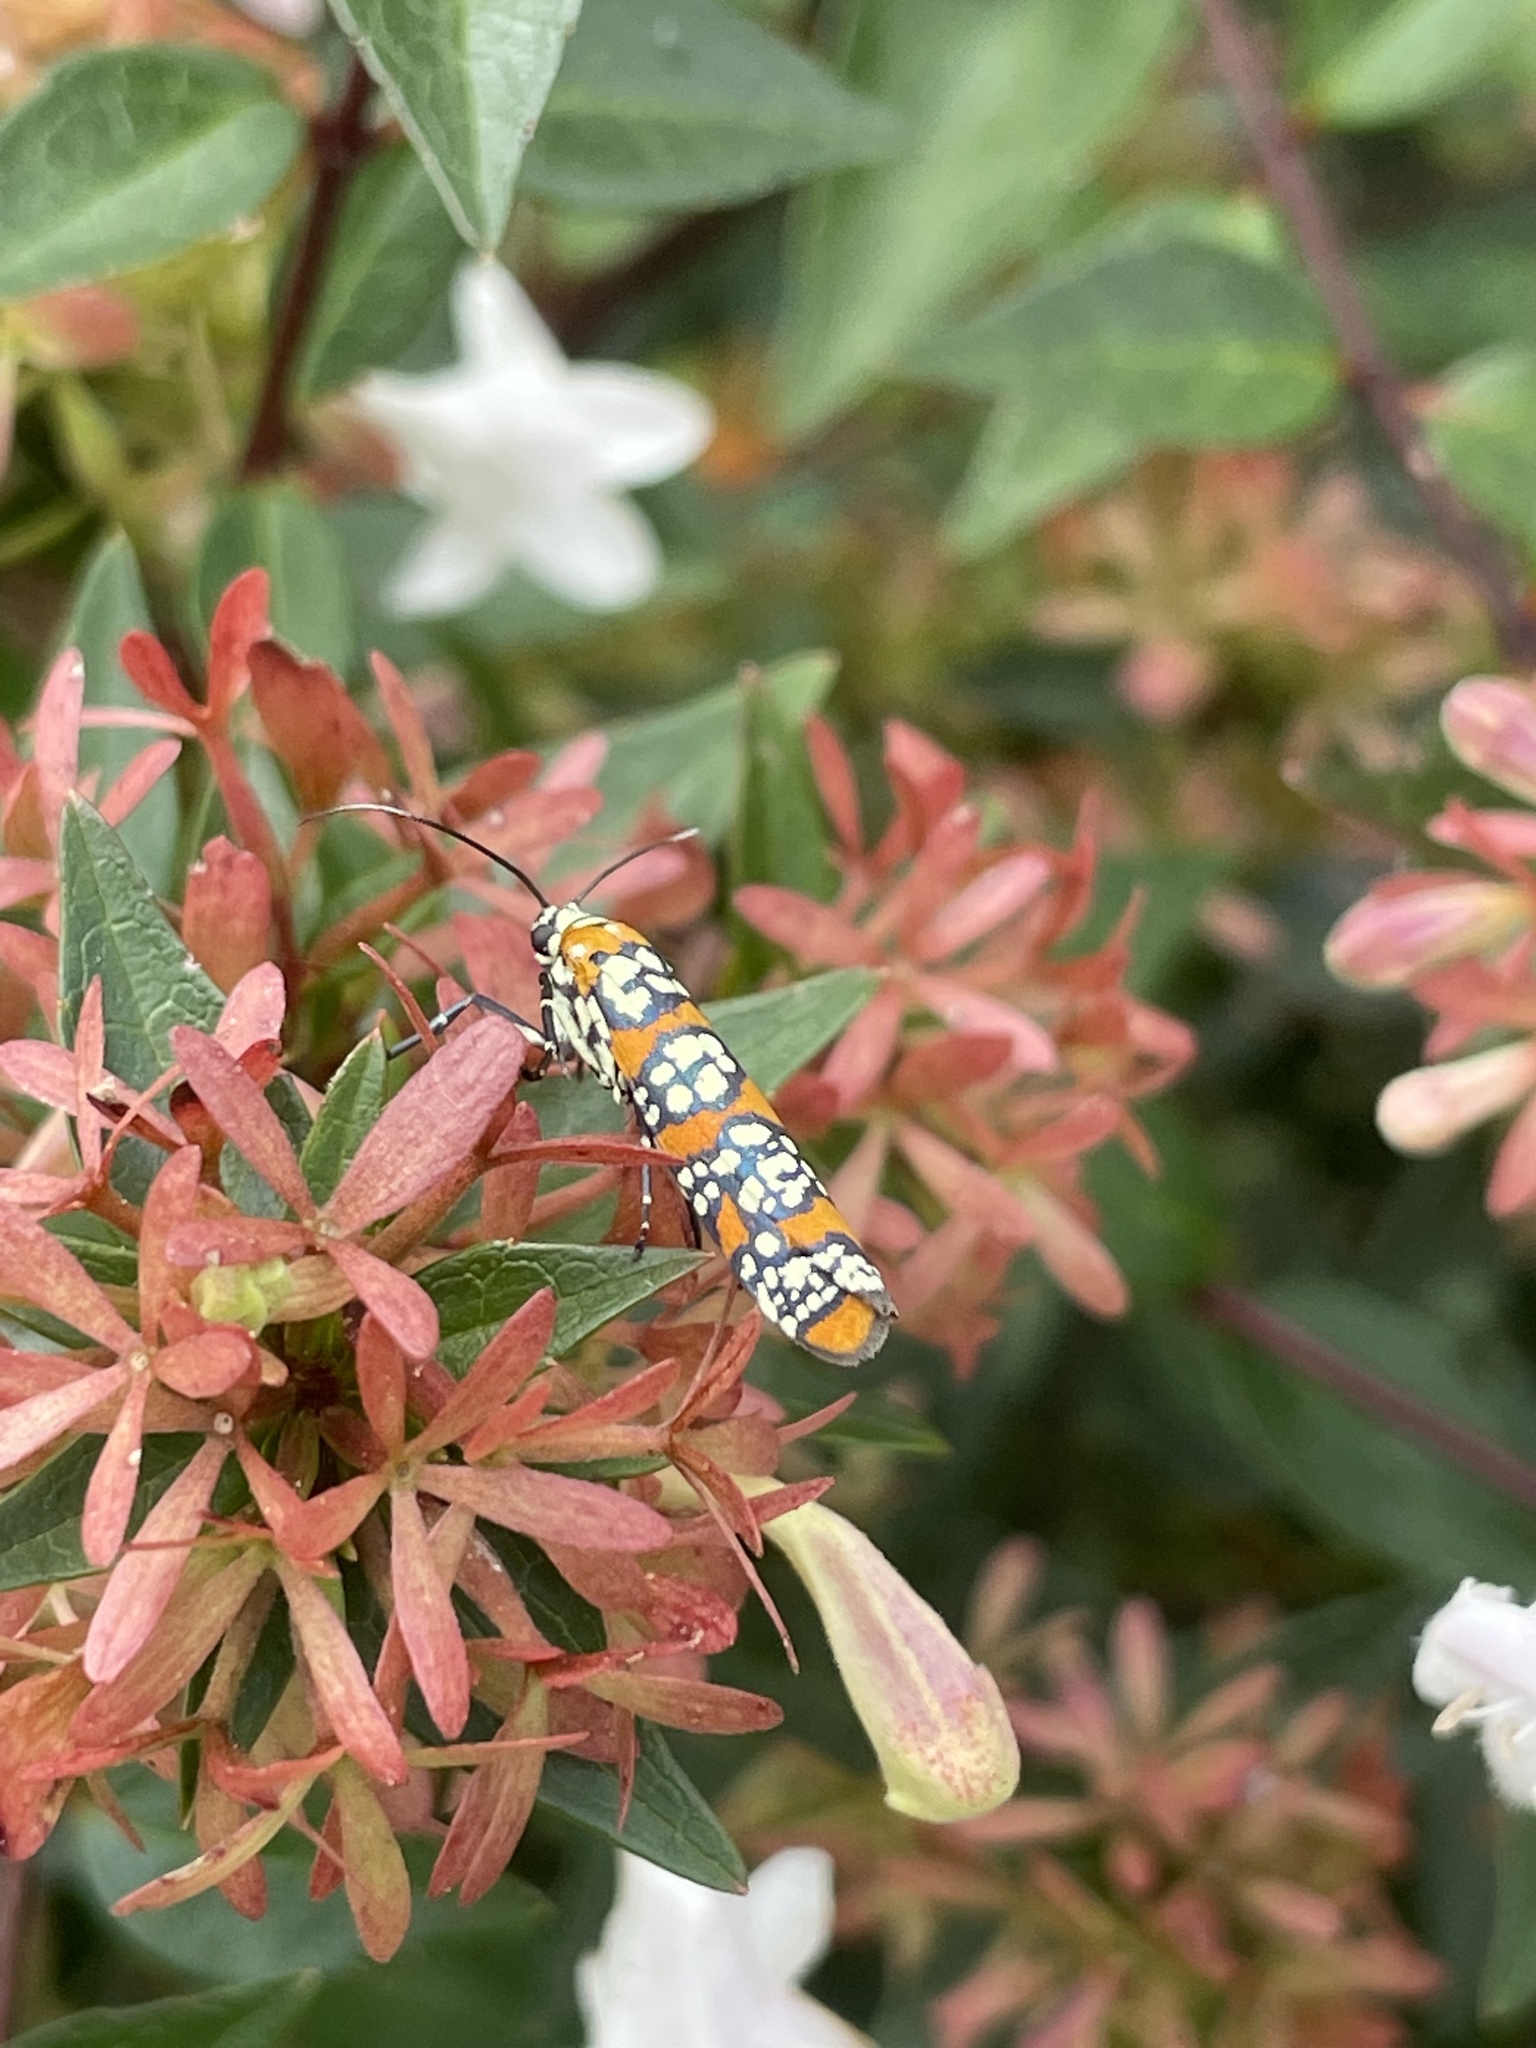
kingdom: Animalia
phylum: Arthropoda
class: Insecta
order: Lepidoptera
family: Attevidae
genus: Atteva
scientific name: Atteva punctella
